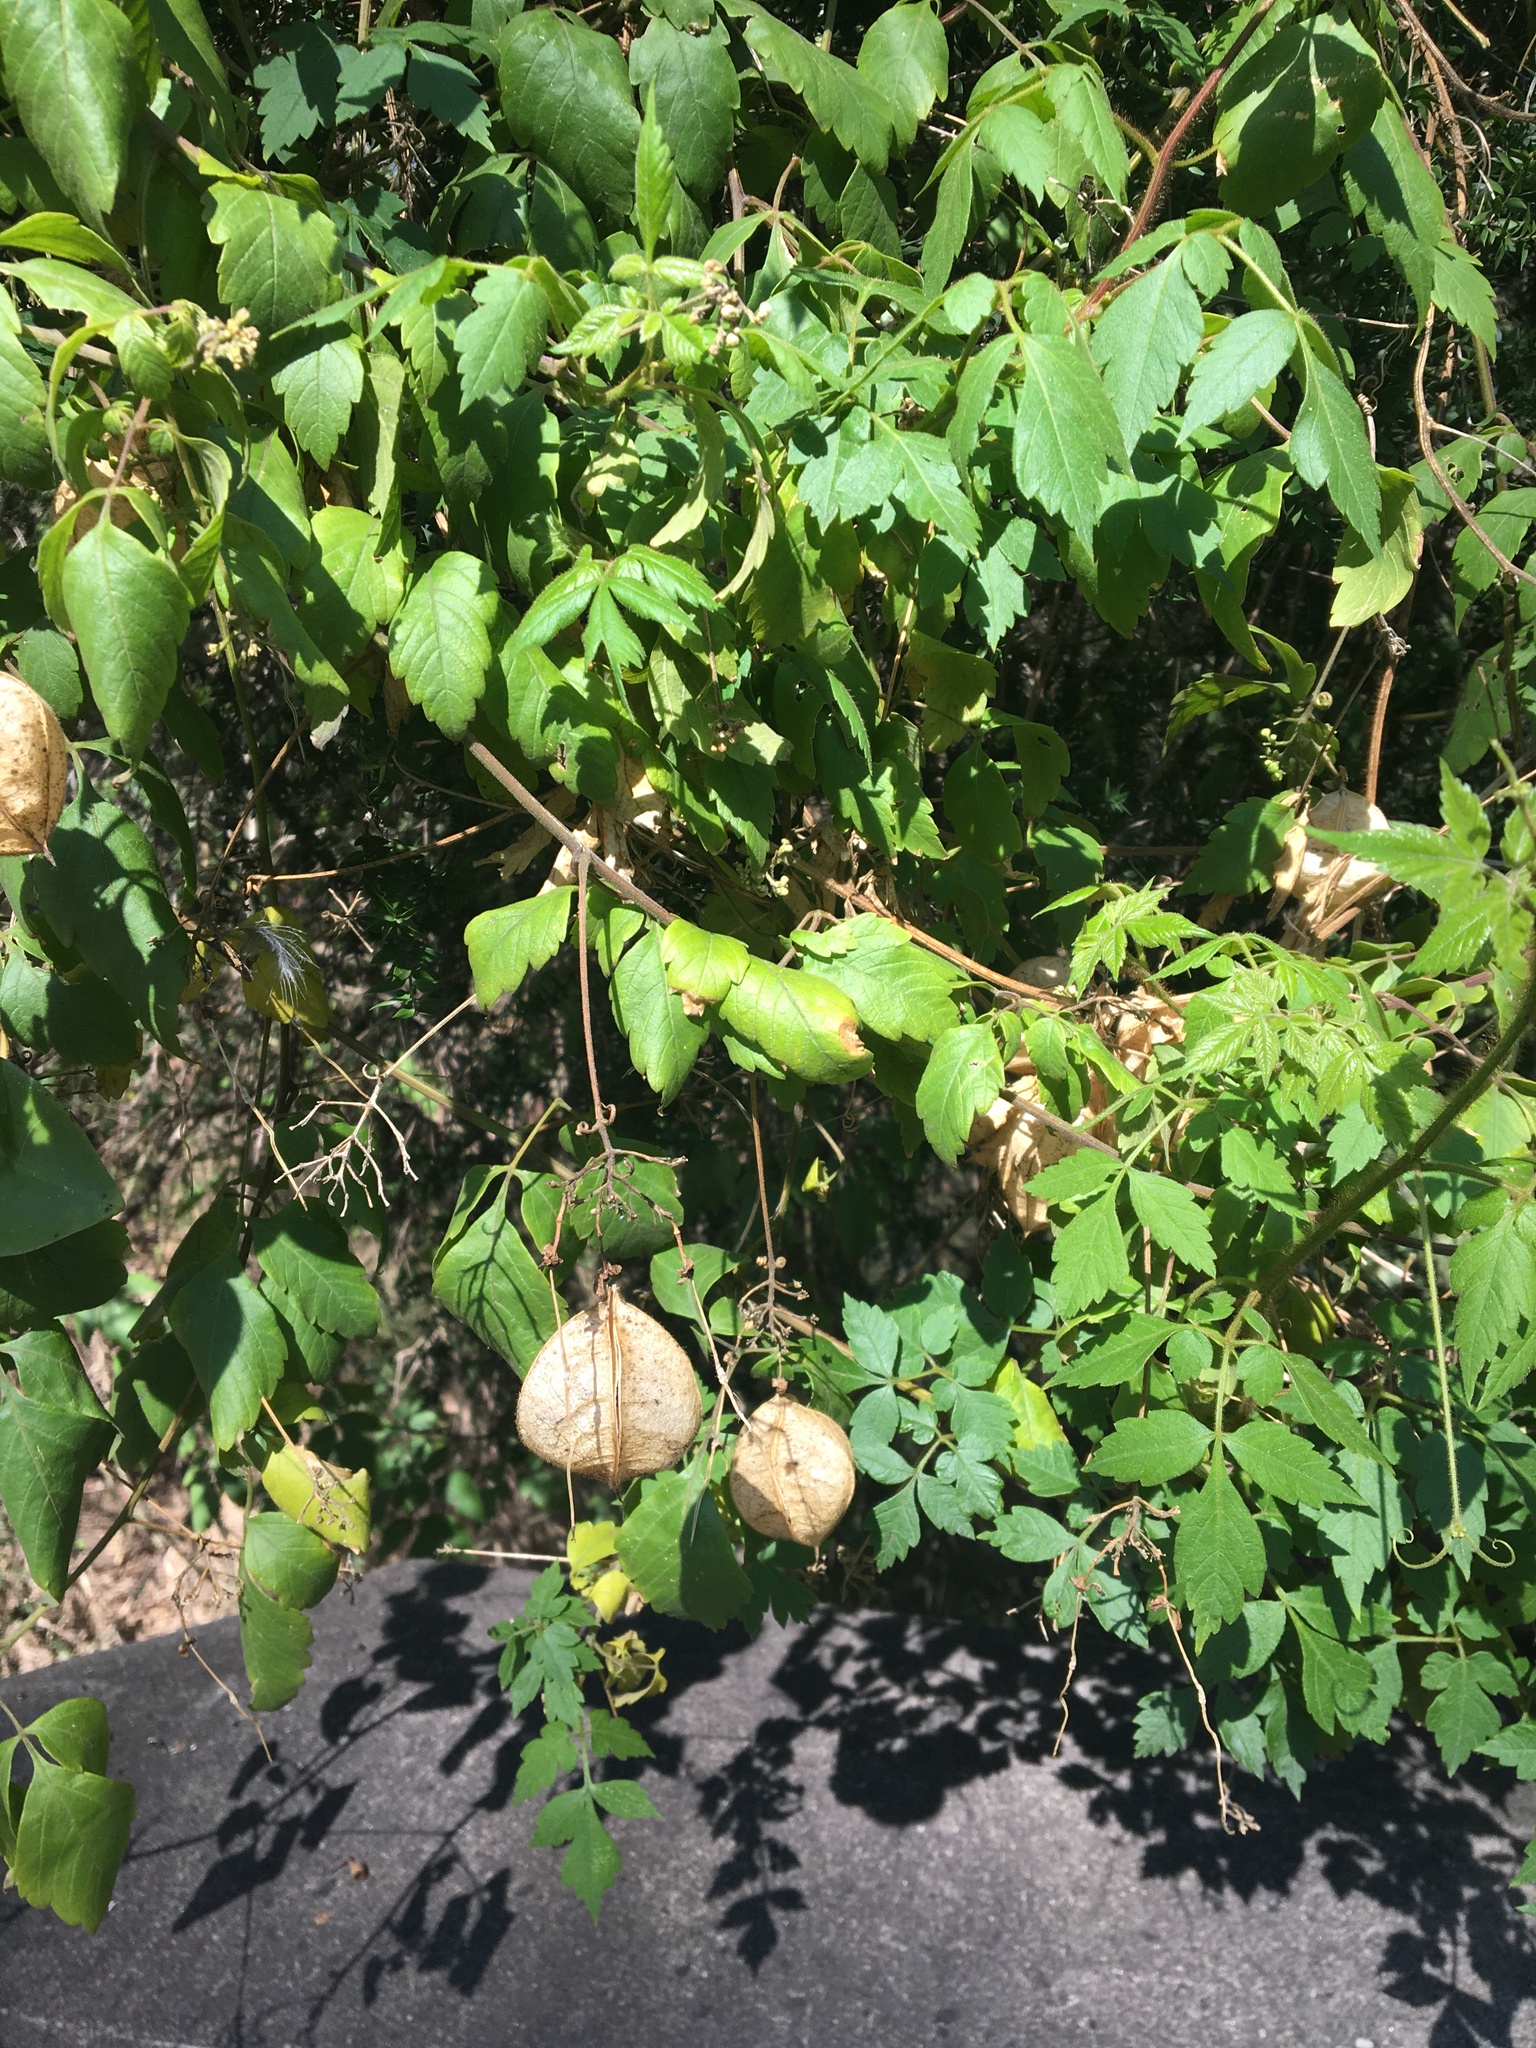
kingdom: Plantae
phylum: Tracheophyta
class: Magnoliopsida
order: Sapindales
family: Sapindaceae
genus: Cardiospermum
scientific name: Cardiospermum grandiflorum
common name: Balloon vine
